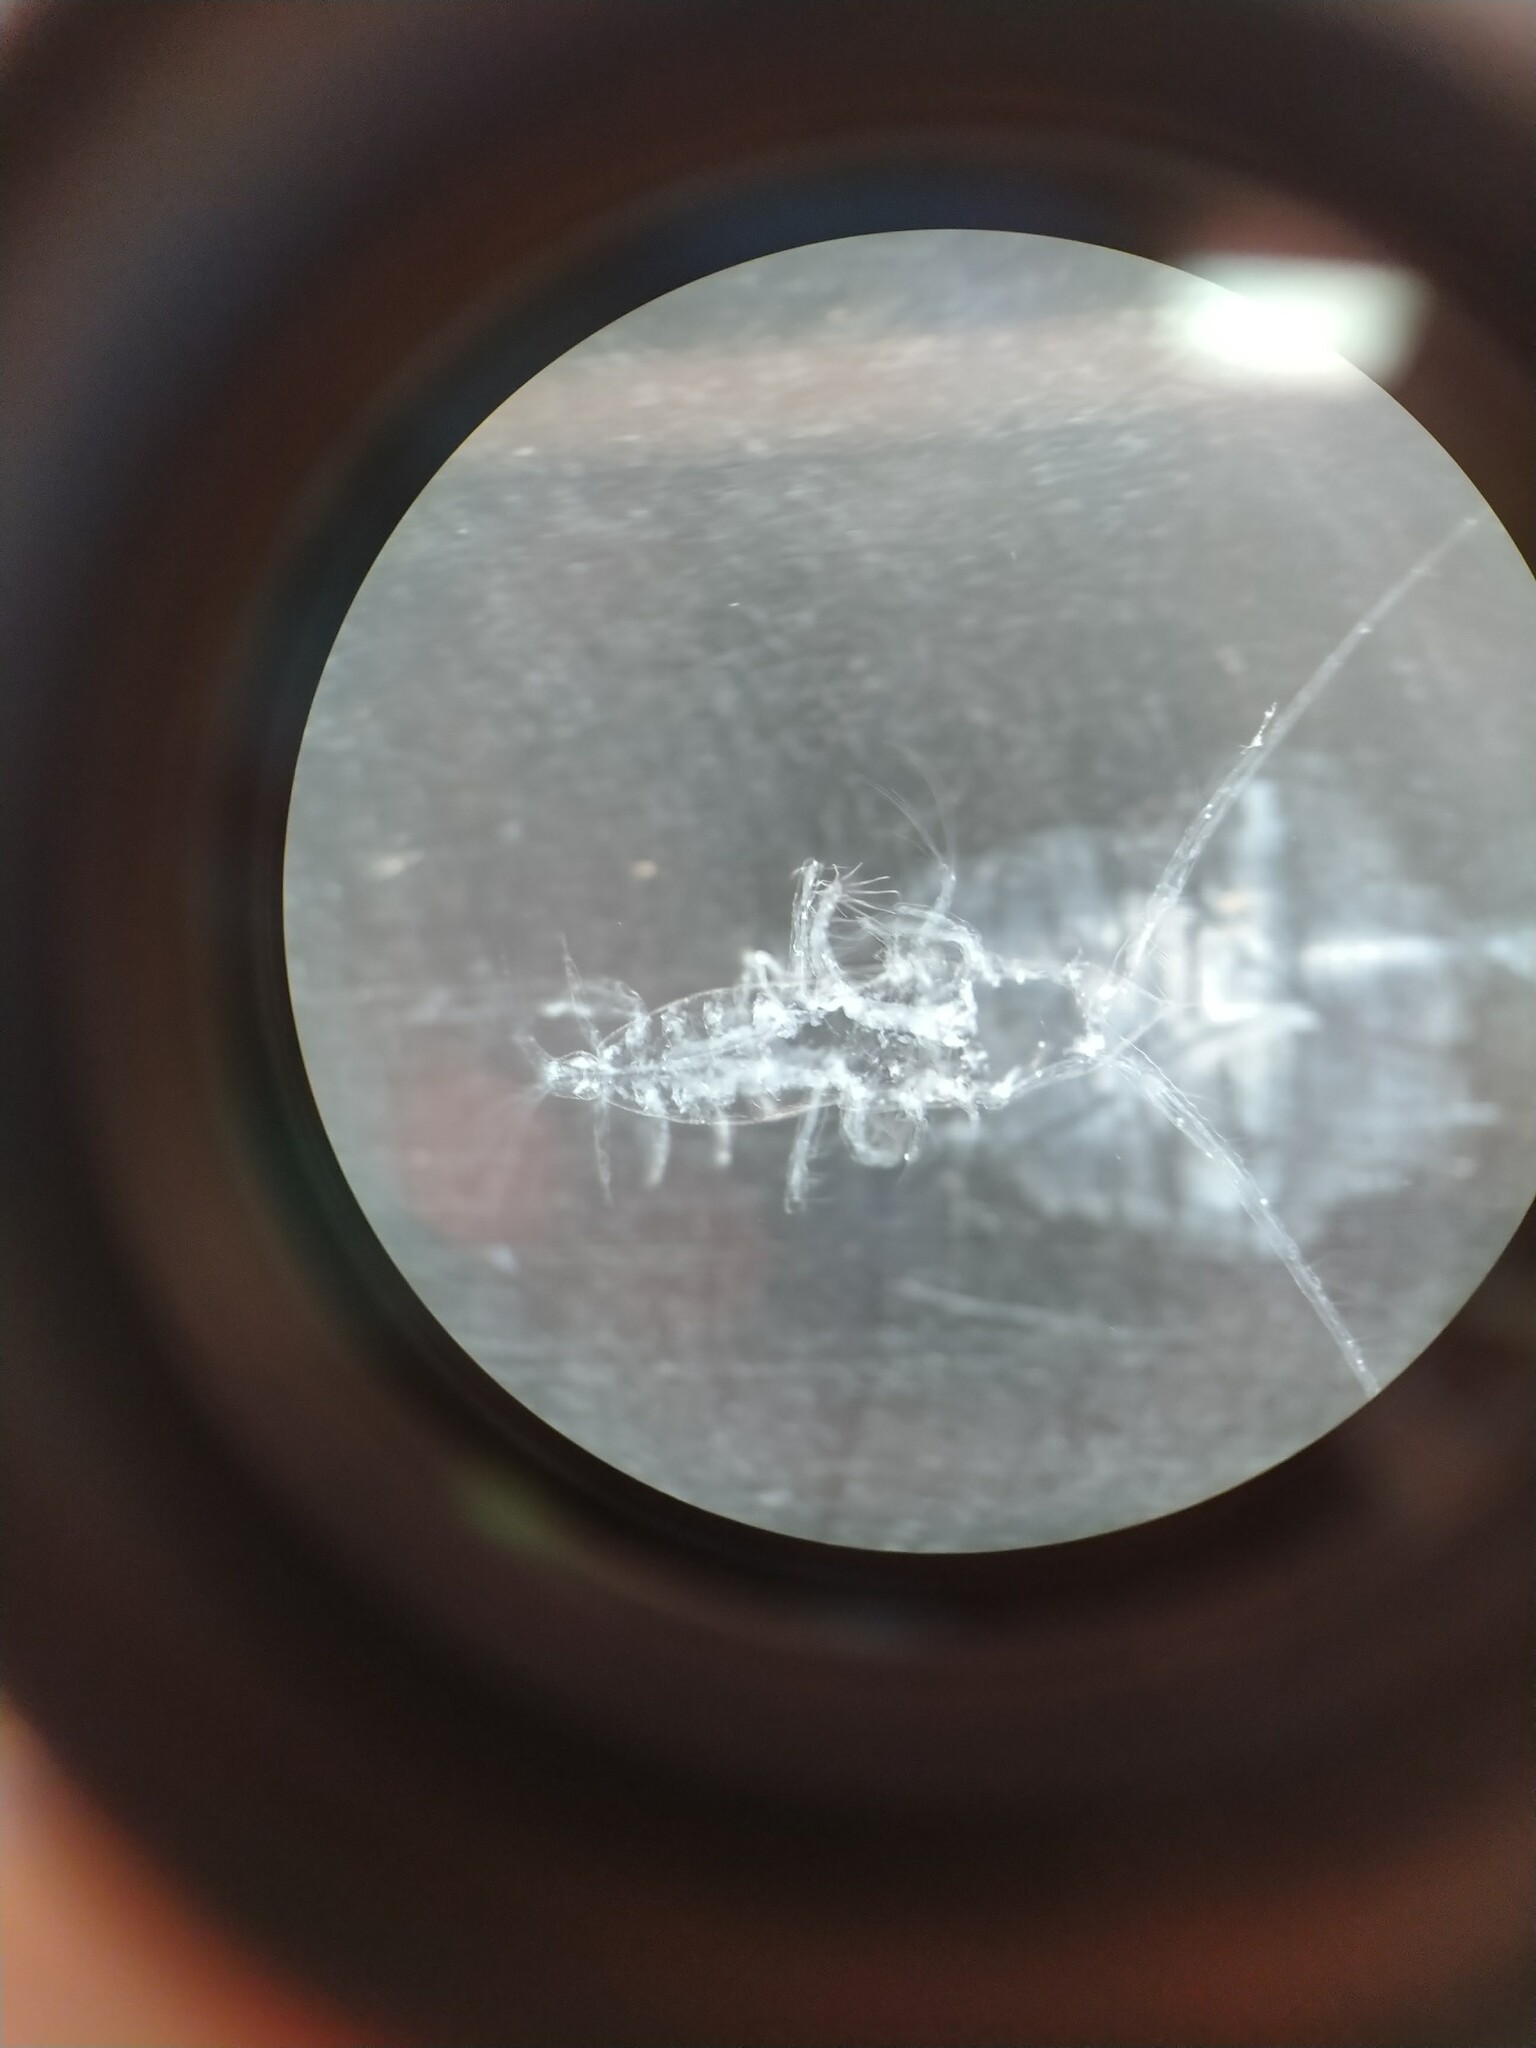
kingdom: Animalia
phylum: Arthropoda
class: Copepoda
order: Calanoida
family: Augaptilidae
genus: Haloptilus
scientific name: Haloptilus acutifrons
